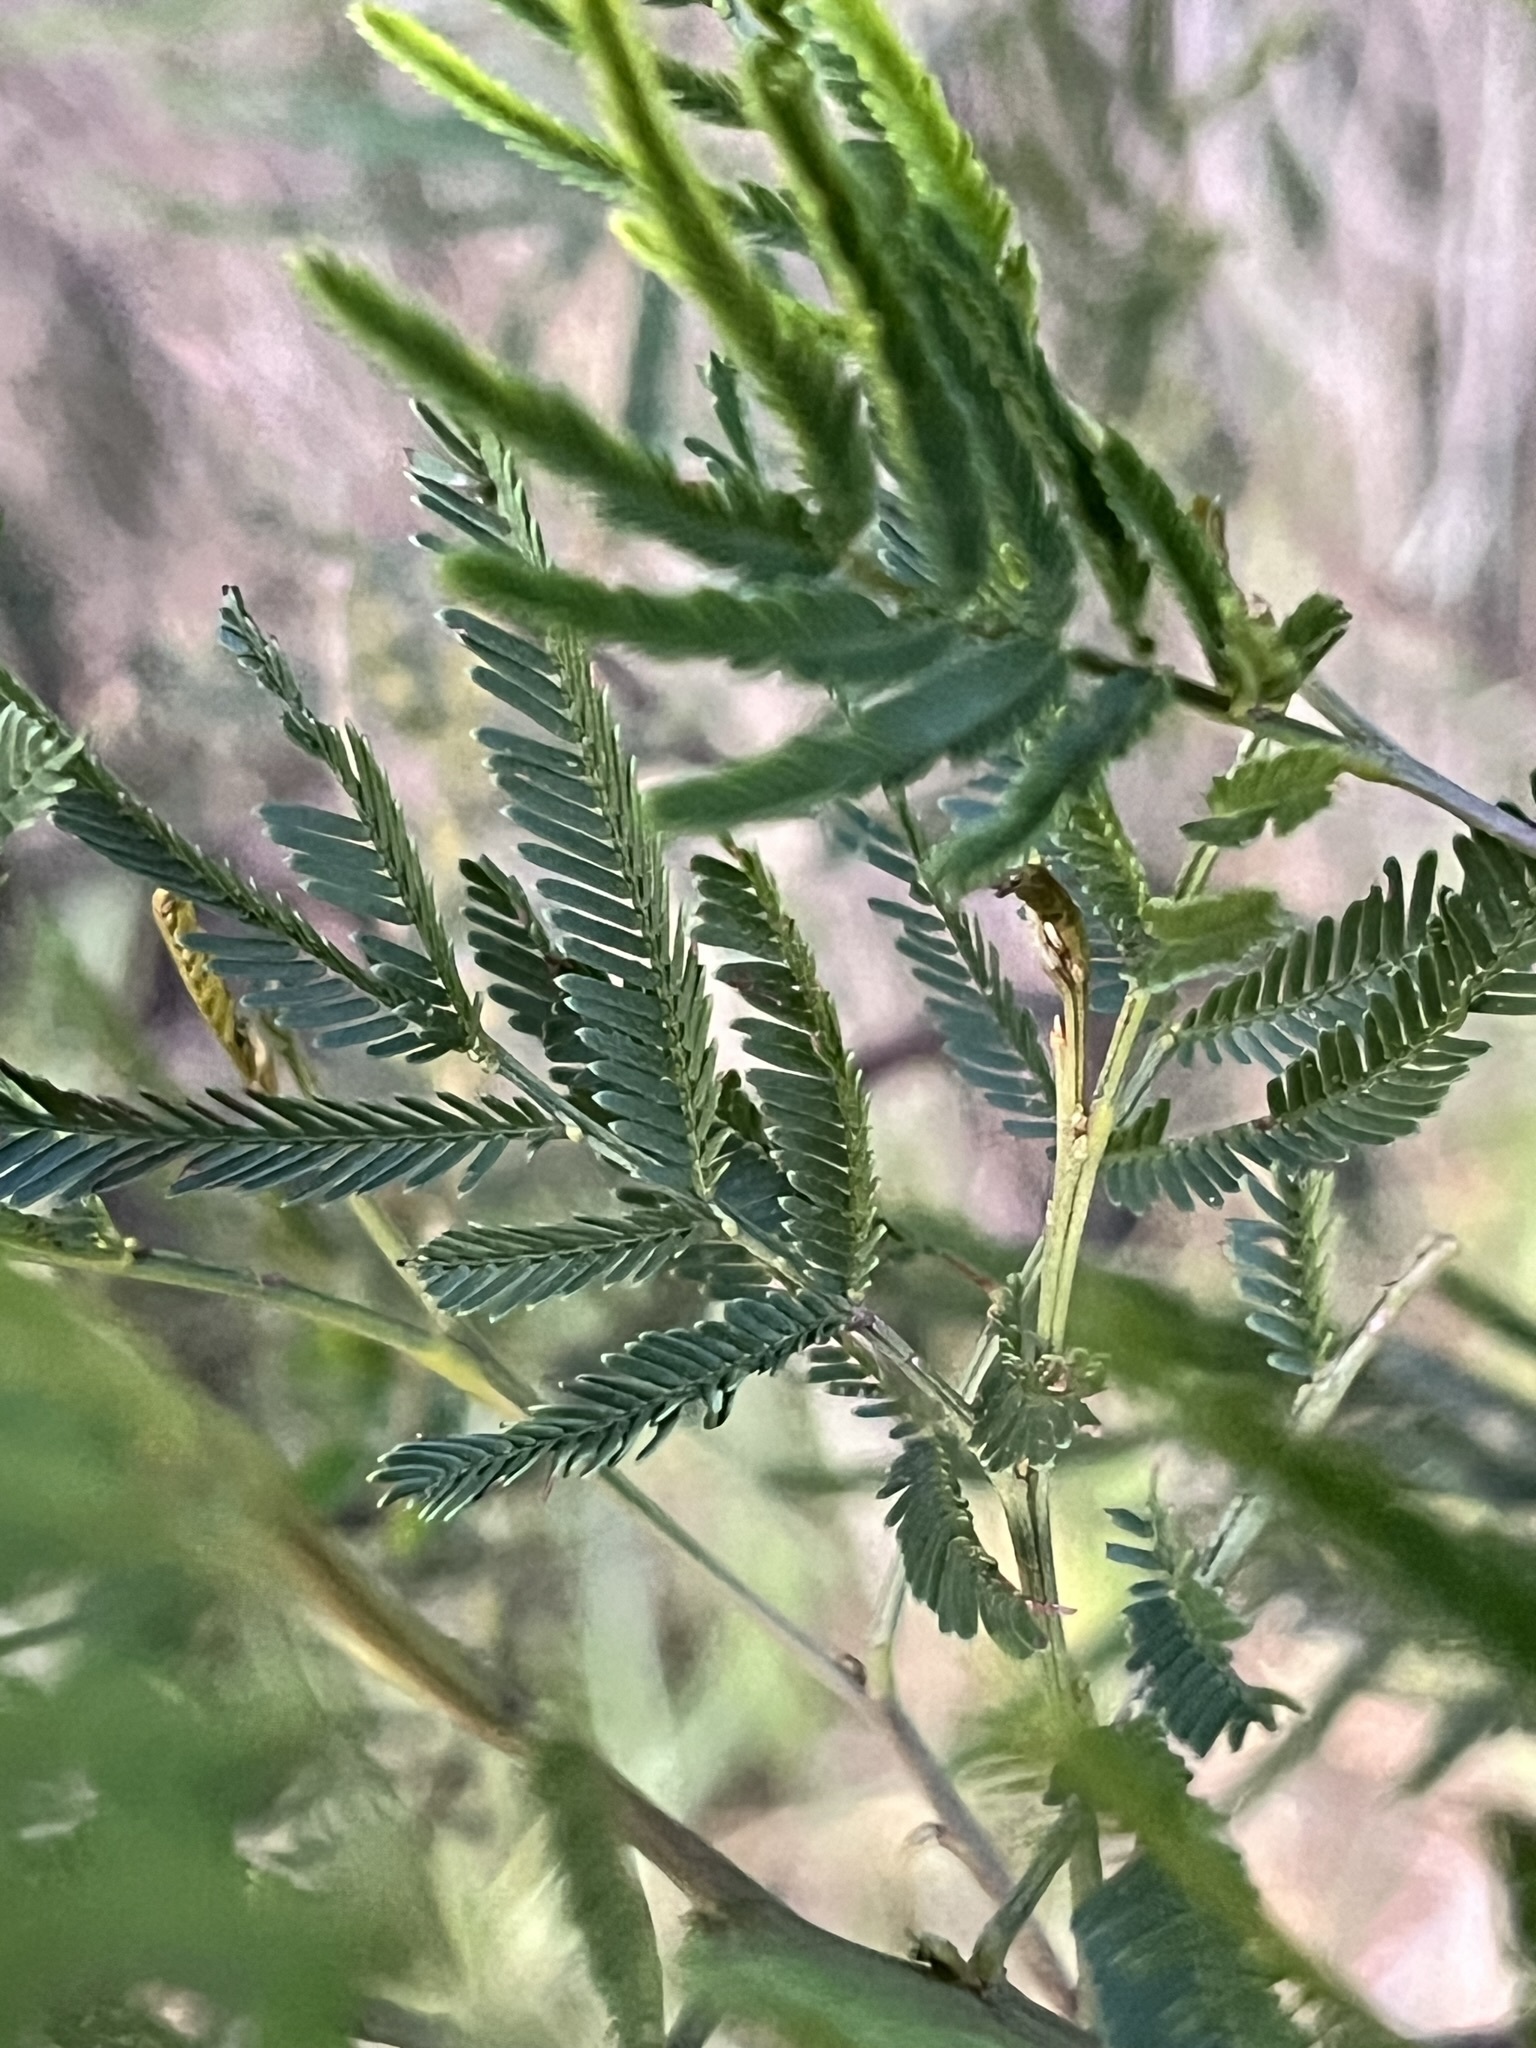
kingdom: Plantae
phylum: Tracheophyta
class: Magnoliopsida
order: Fabales
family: Fabaceae
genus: Acacia
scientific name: Acacia parramattensis
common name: Sydney green wattle
